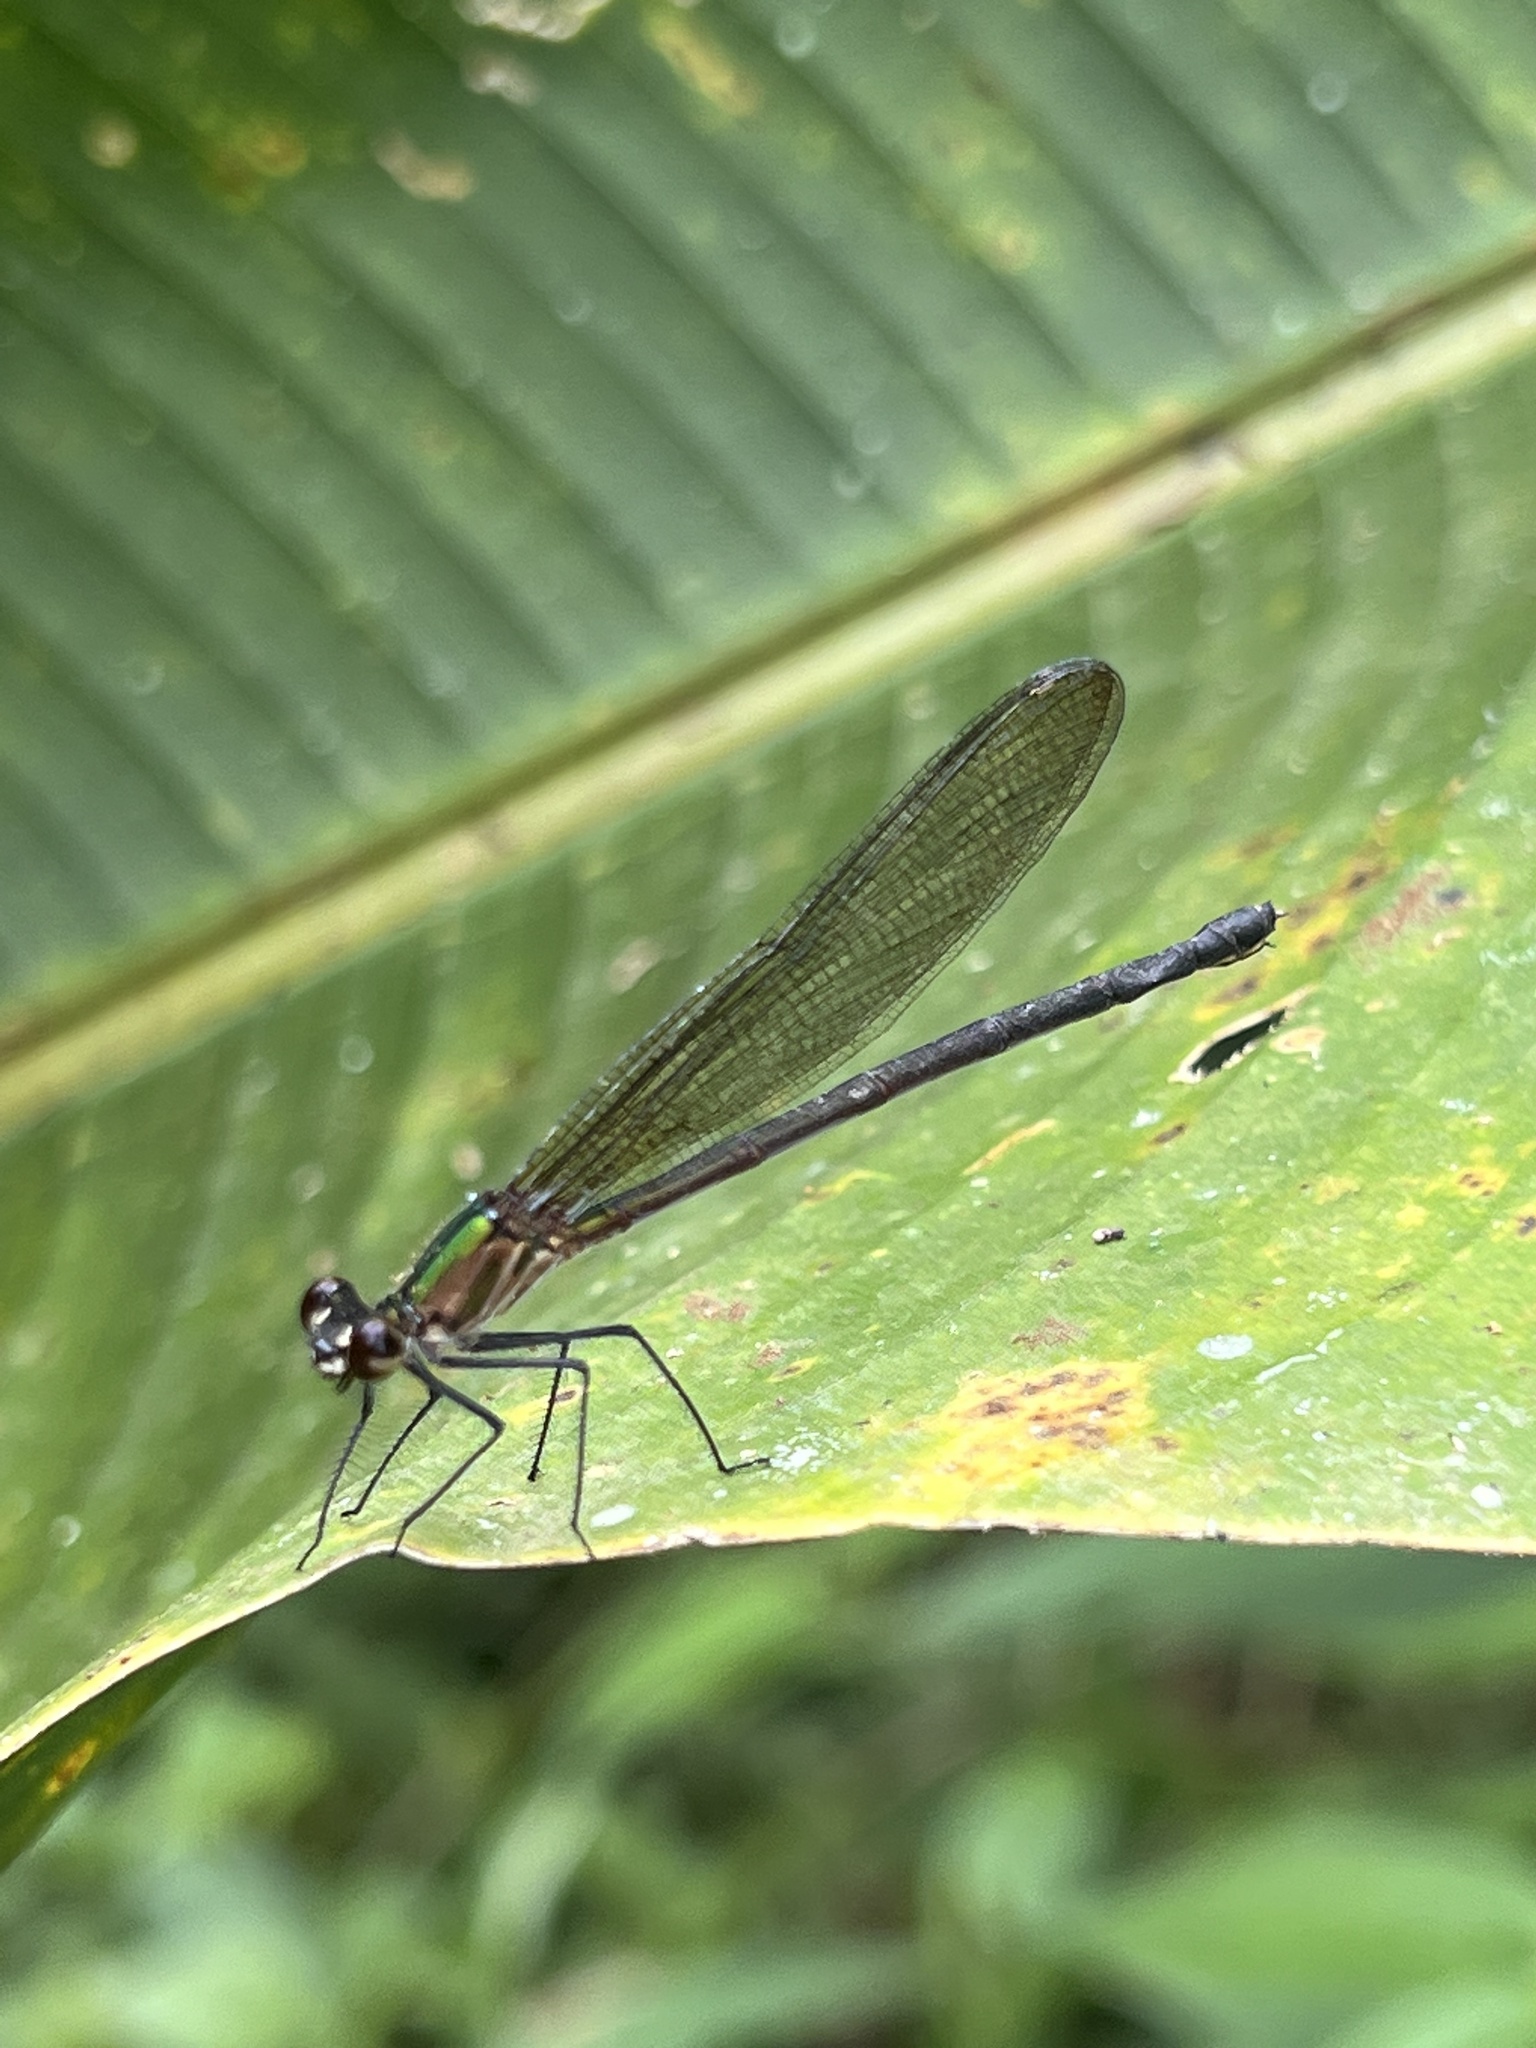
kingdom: Animalia
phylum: Arthropoda
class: Insecta
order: Odonata
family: Calopterygidae
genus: Hetaerina
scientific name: Hetaerina occisa
